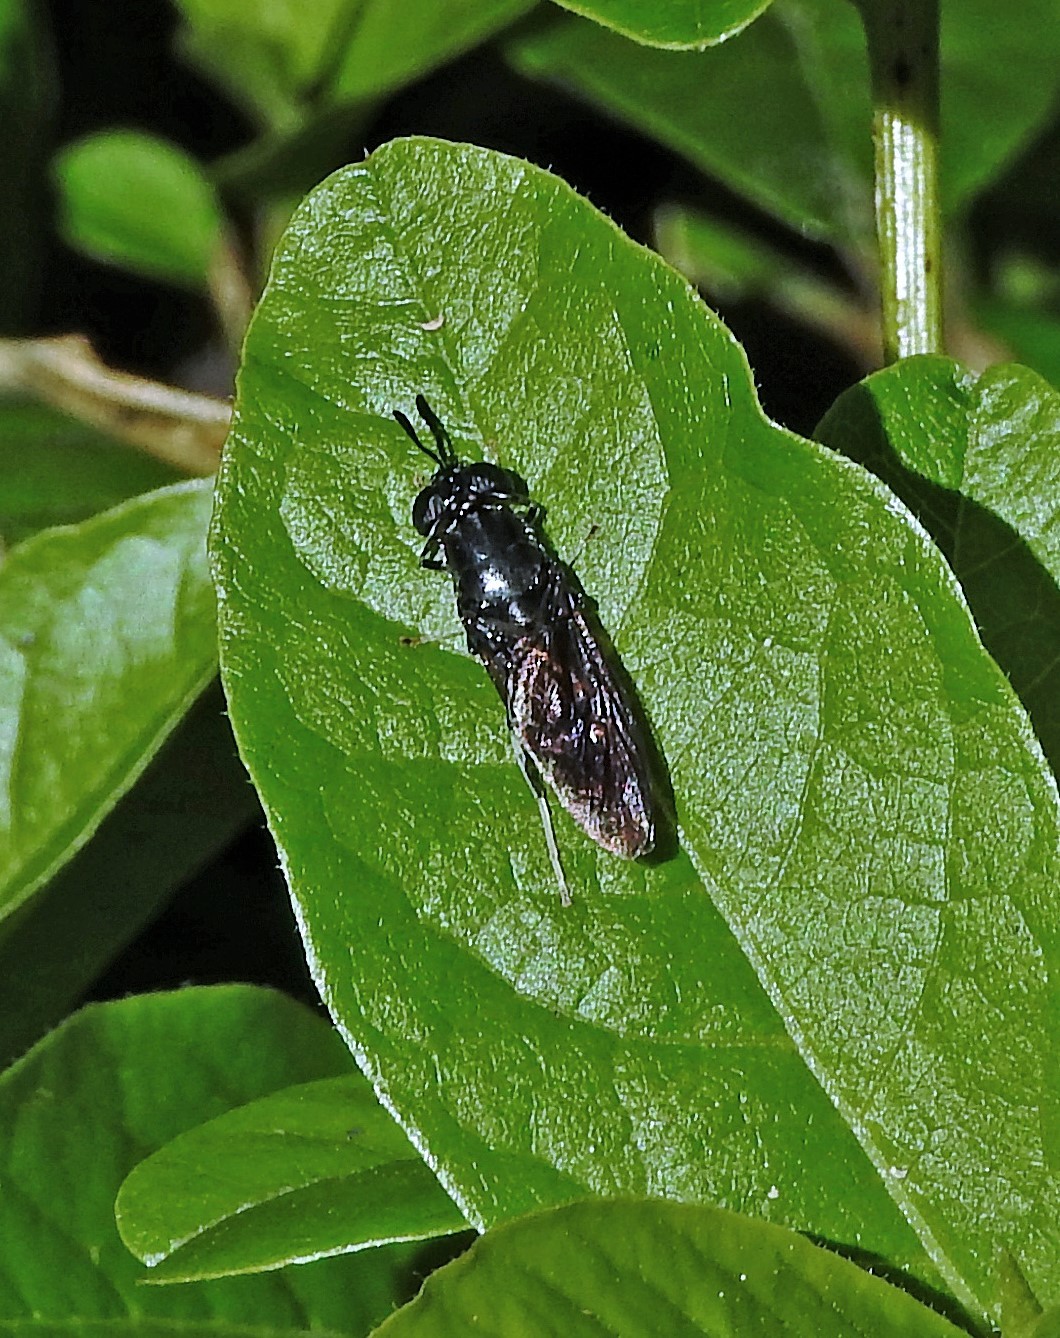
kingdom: Animalia
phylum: Arthropoda
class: Insecta
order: Diptera
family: Stratiomyidae
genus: Hermetia
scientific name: Hermetia illucens
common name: Black soldier fly
